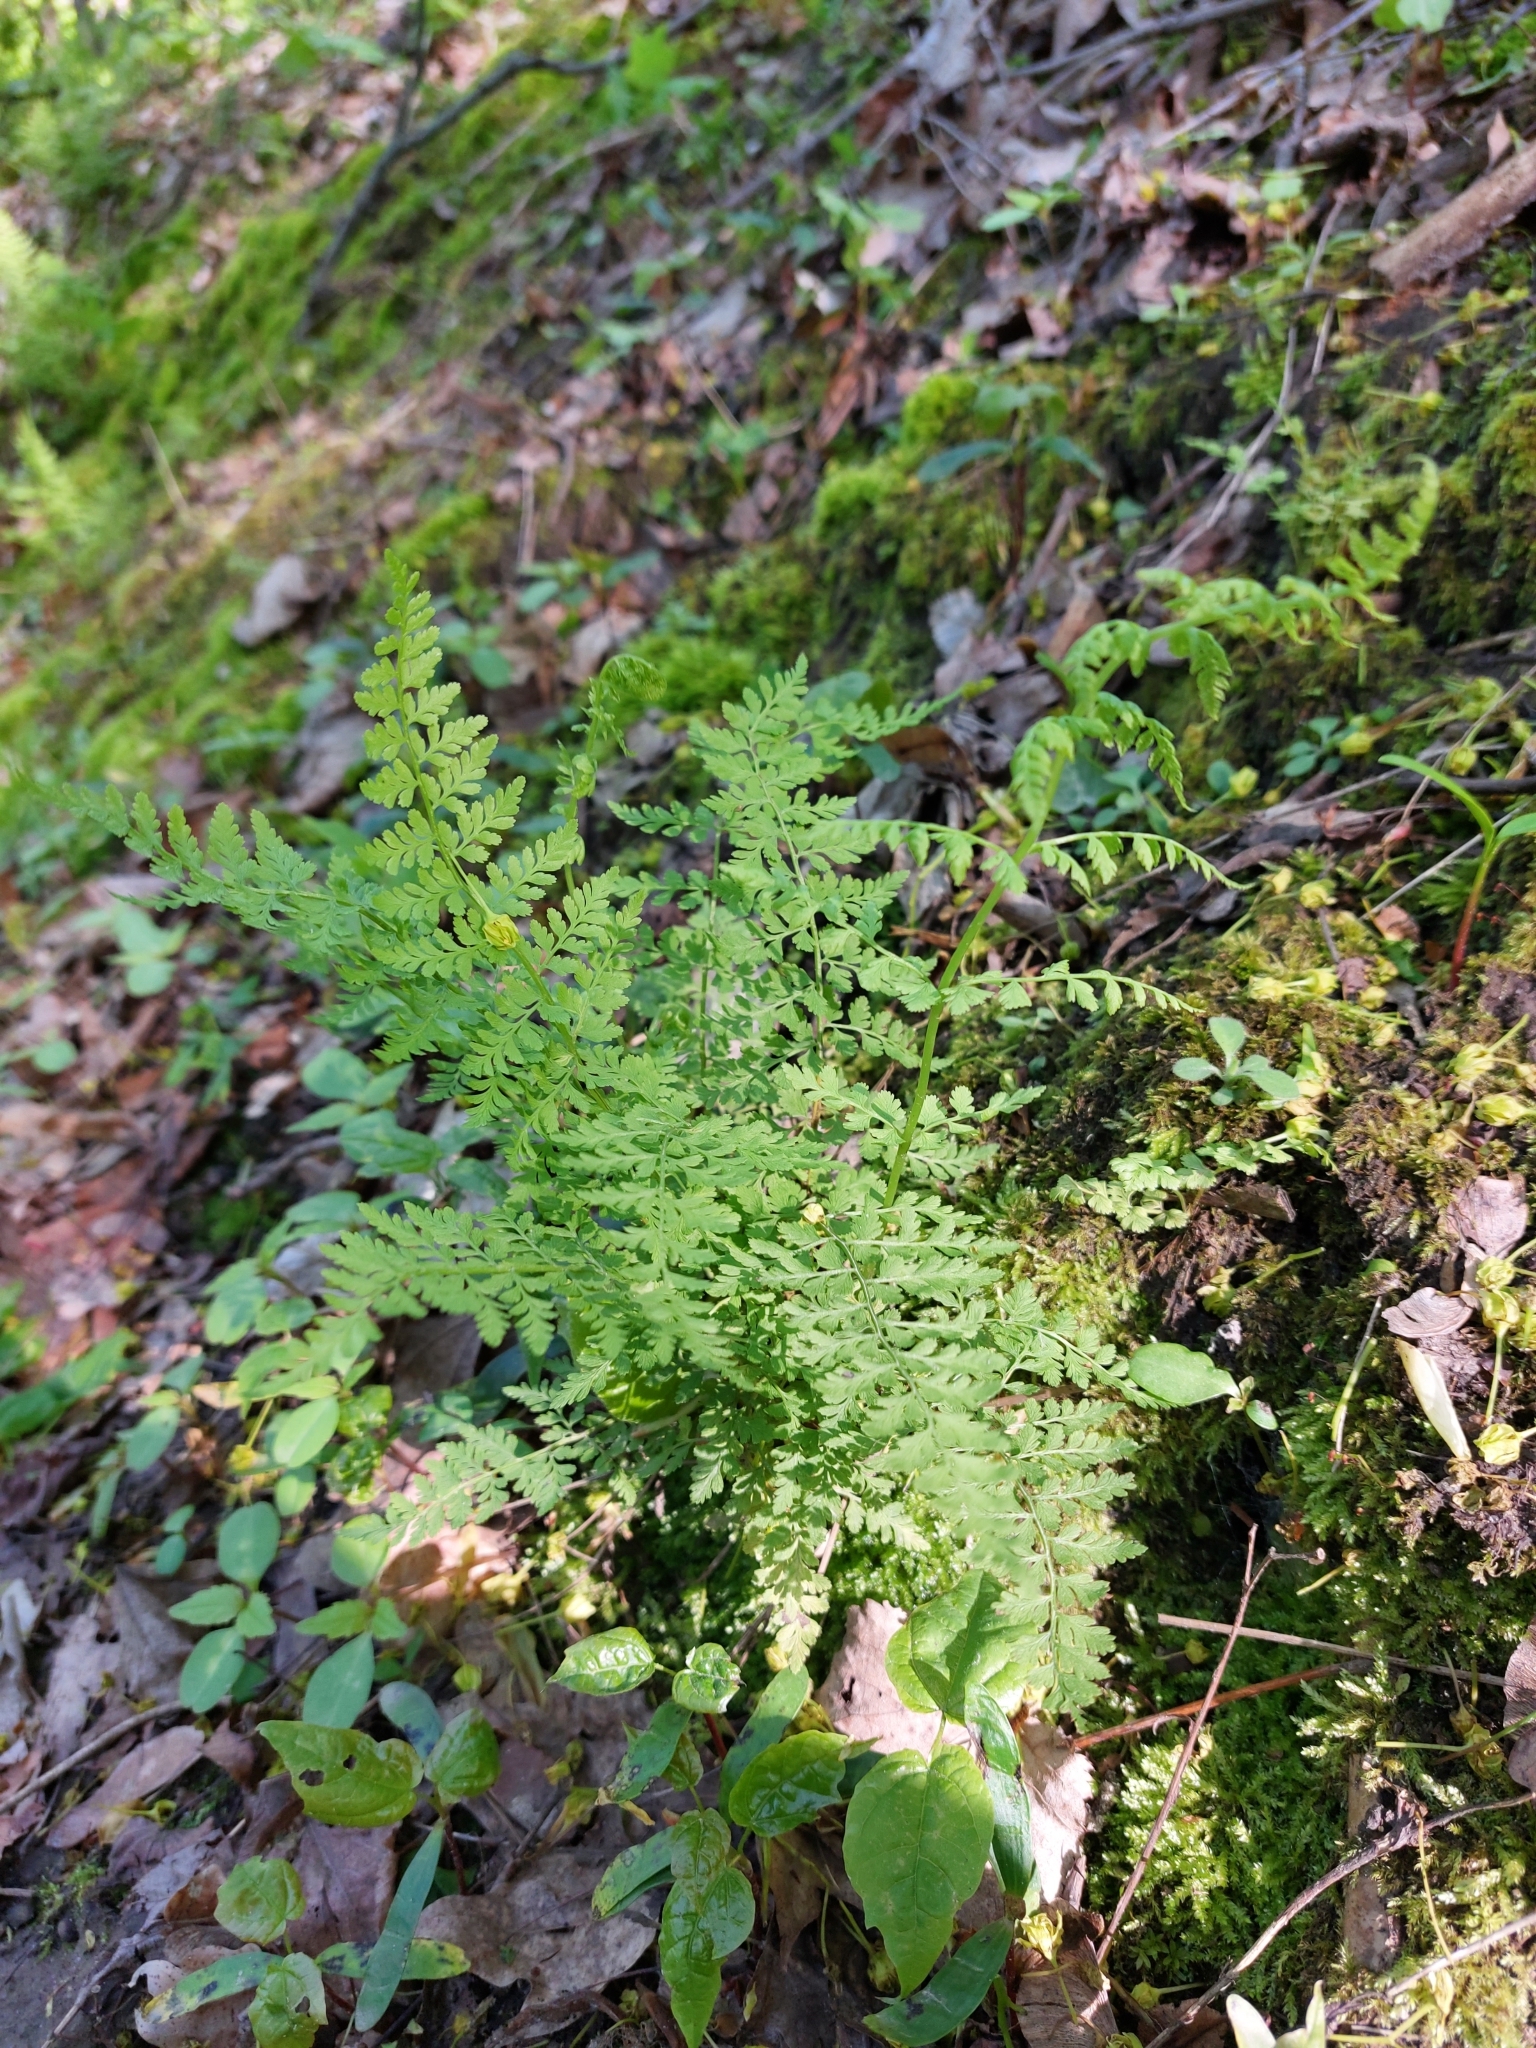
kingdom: Plantae
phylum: Tracheophyta
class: Polypodiopsida
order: Polypodiales
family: Cystopteridaceae
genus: Cystopteris
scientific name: Cystopteris fragilis
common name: Brittle bladder fern
